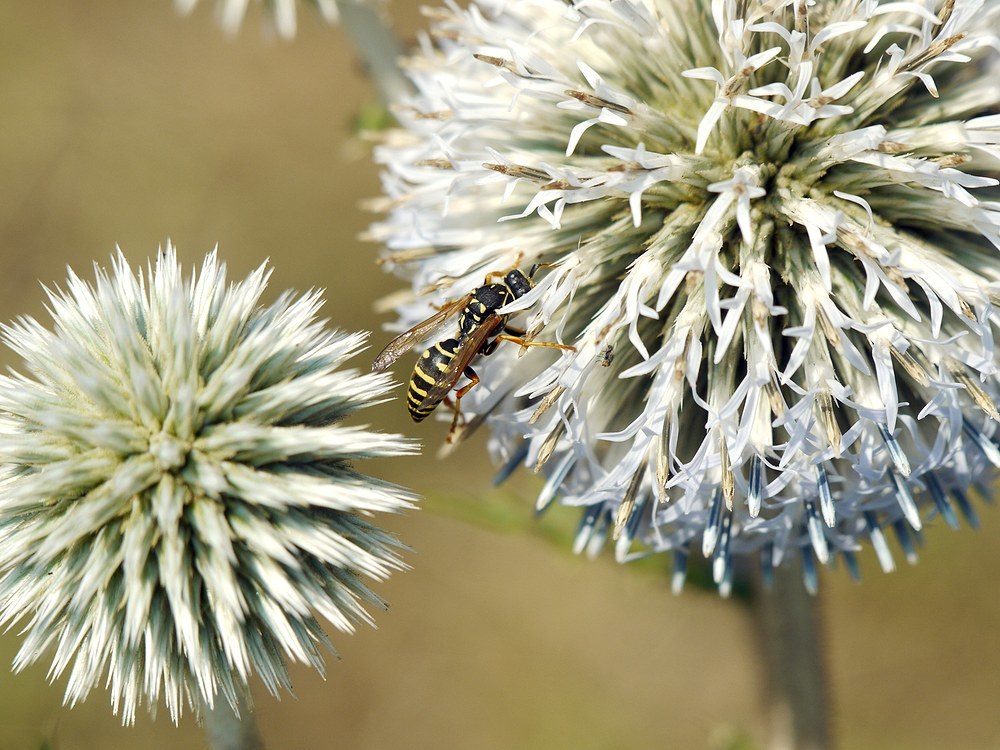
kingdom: Animalia
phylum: Arthropoda
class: Insecta
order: Hymenoptera
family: Eumenidae
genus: Polistes
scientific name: Polistes
